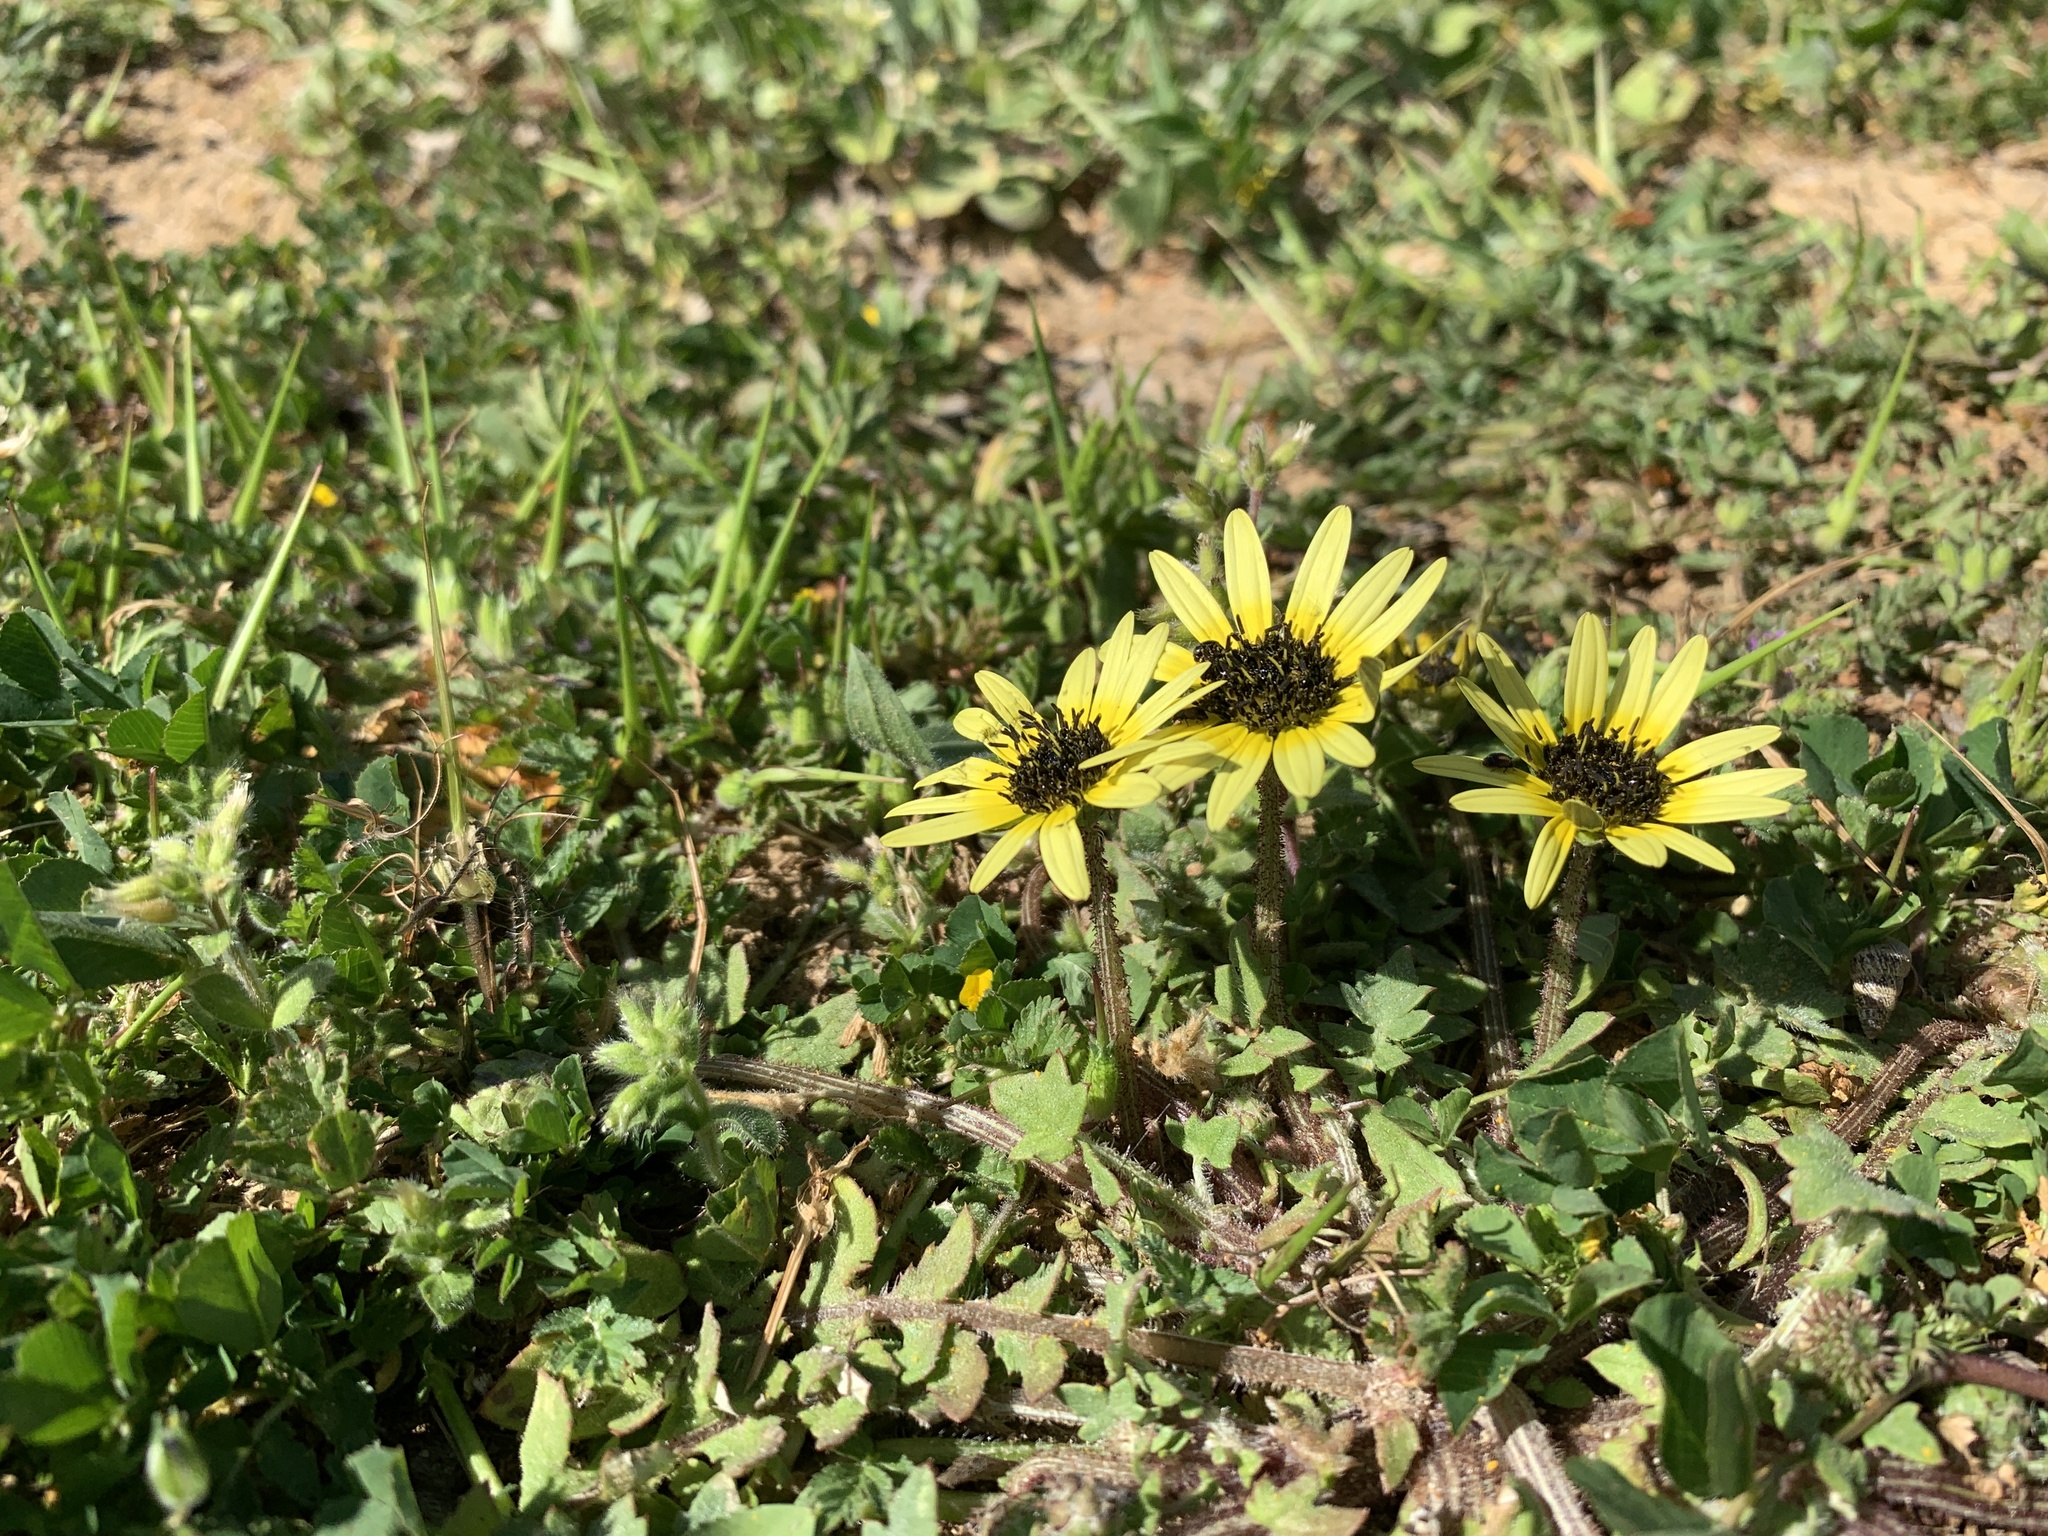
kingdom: Plantae
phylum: Tracheophyta
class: Magnoliopsida
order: Asterales
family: Asteraceae
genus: Arctotheca
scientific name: Arctotheca calendula
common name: Capeweed
